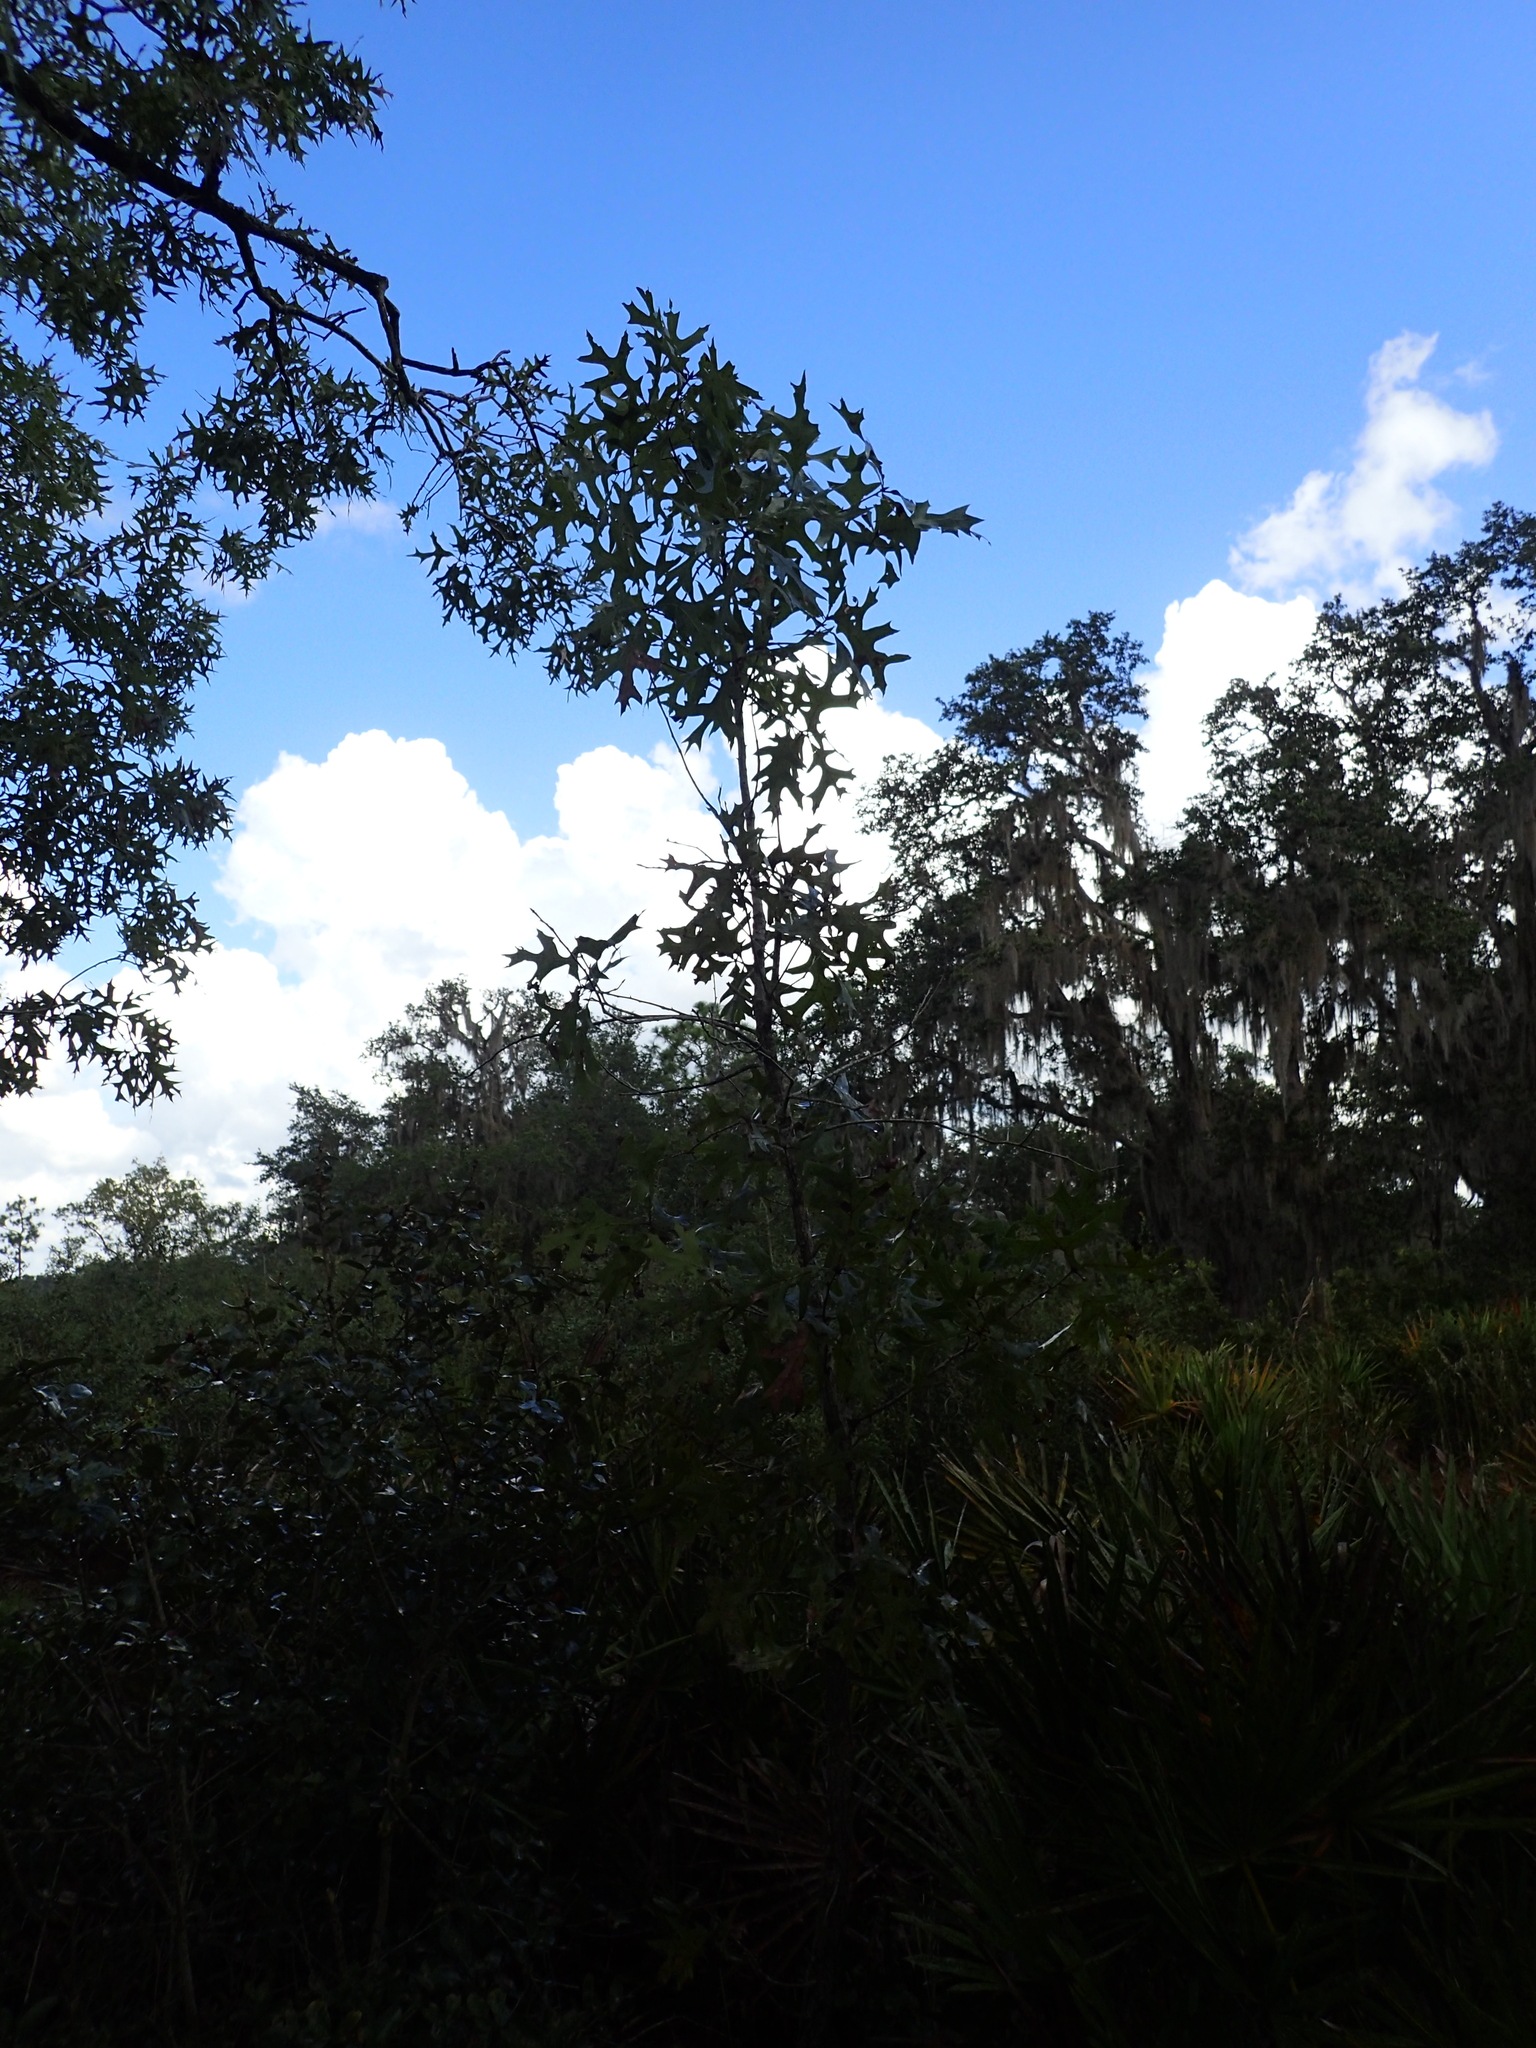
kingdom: Plantae
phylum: Tracheophyta
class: Magnoliopsida
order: Fagales
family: Fagaceae
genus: Quercus
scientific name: Quercus laevis
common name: Turkey oak
